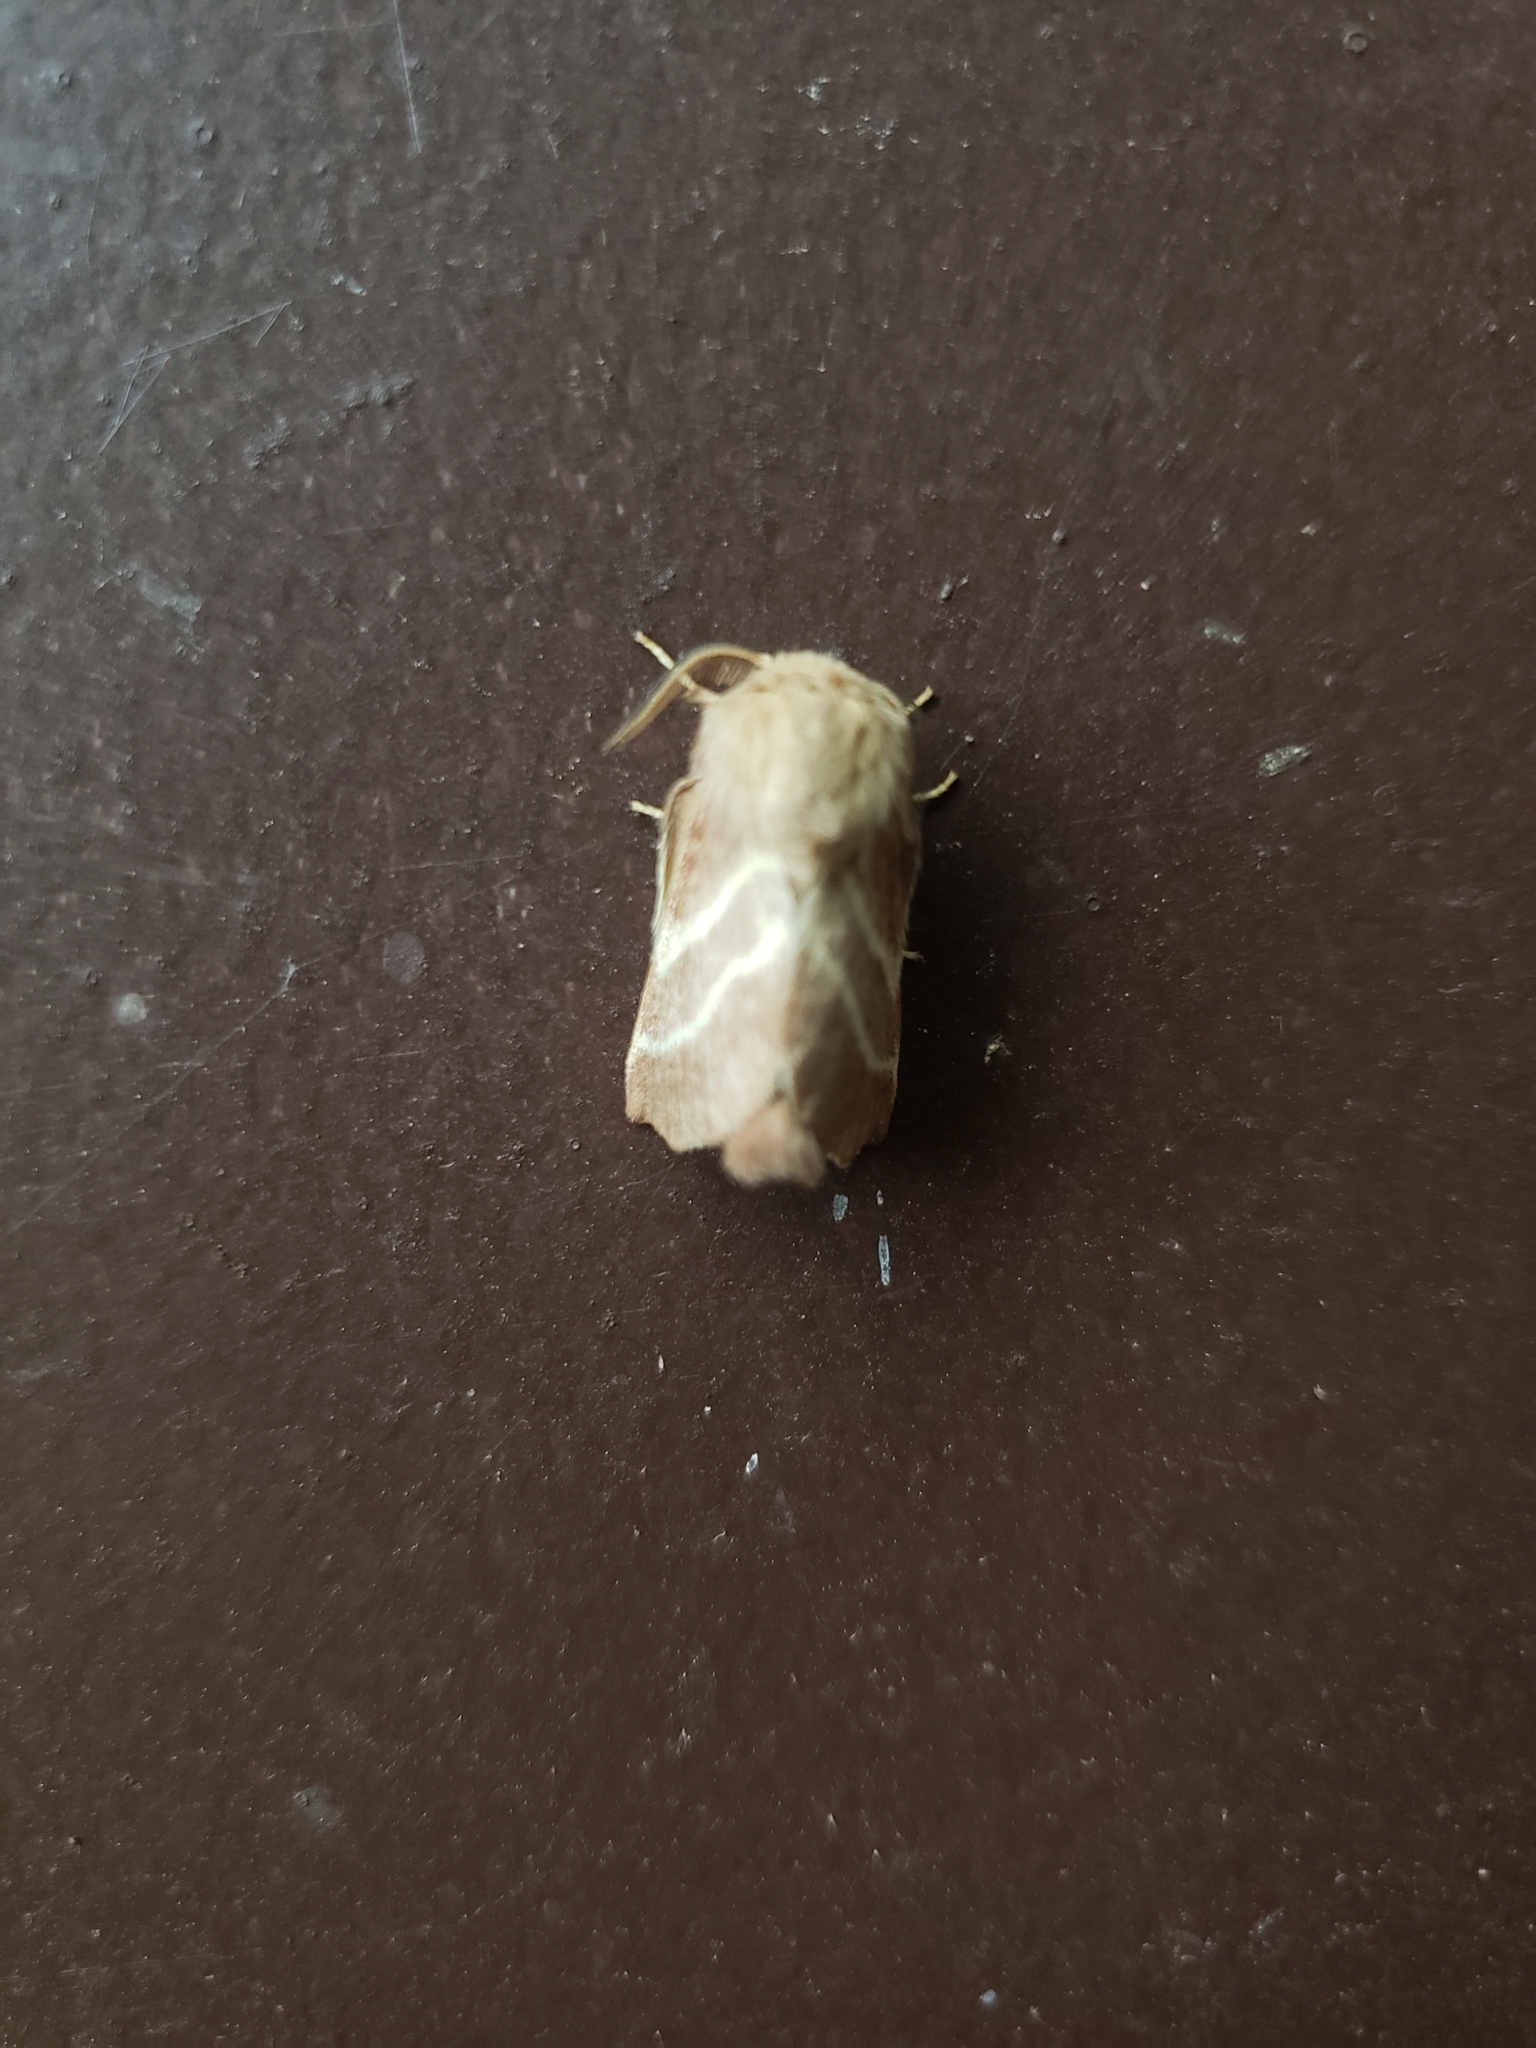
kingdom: Animalia
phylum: Arthropoda
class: Insecta
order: Lepidoptera
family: Lasiocampidae
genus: Malacosoma
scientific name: Malacosoma americana
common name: Eastern tent caterpillar moth
